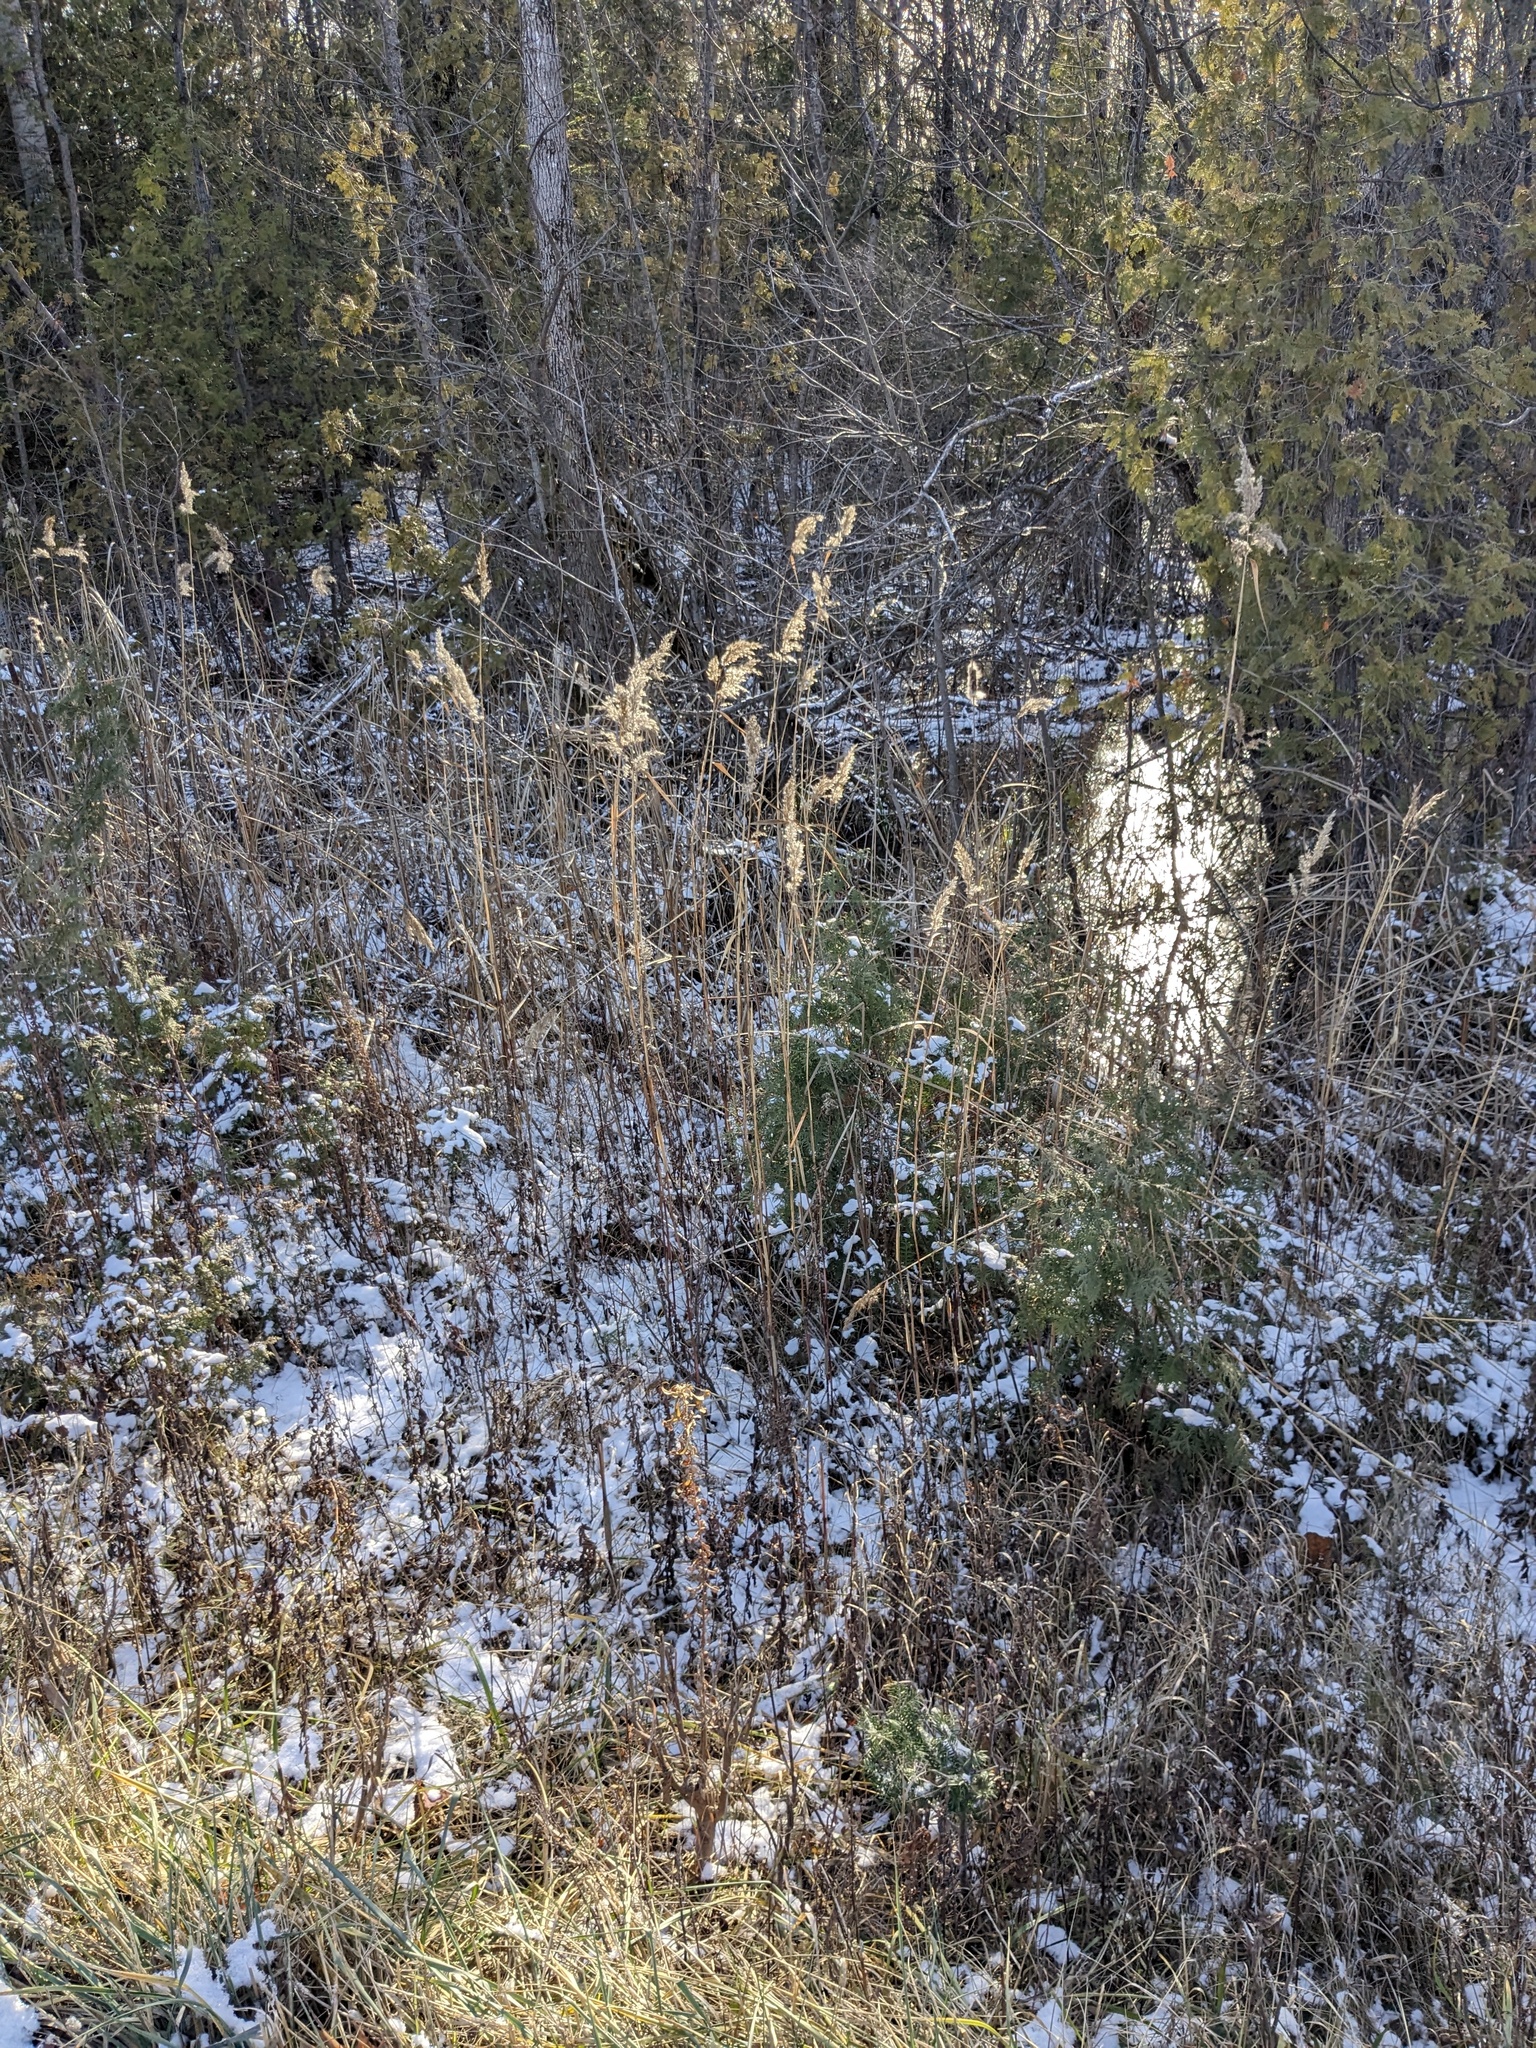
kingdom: Plantae
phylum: Tracheophyta
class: Liliopsida
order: Poales
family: Poaceae
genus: Phragmites
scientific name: Phragmites australis
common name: Common reed
